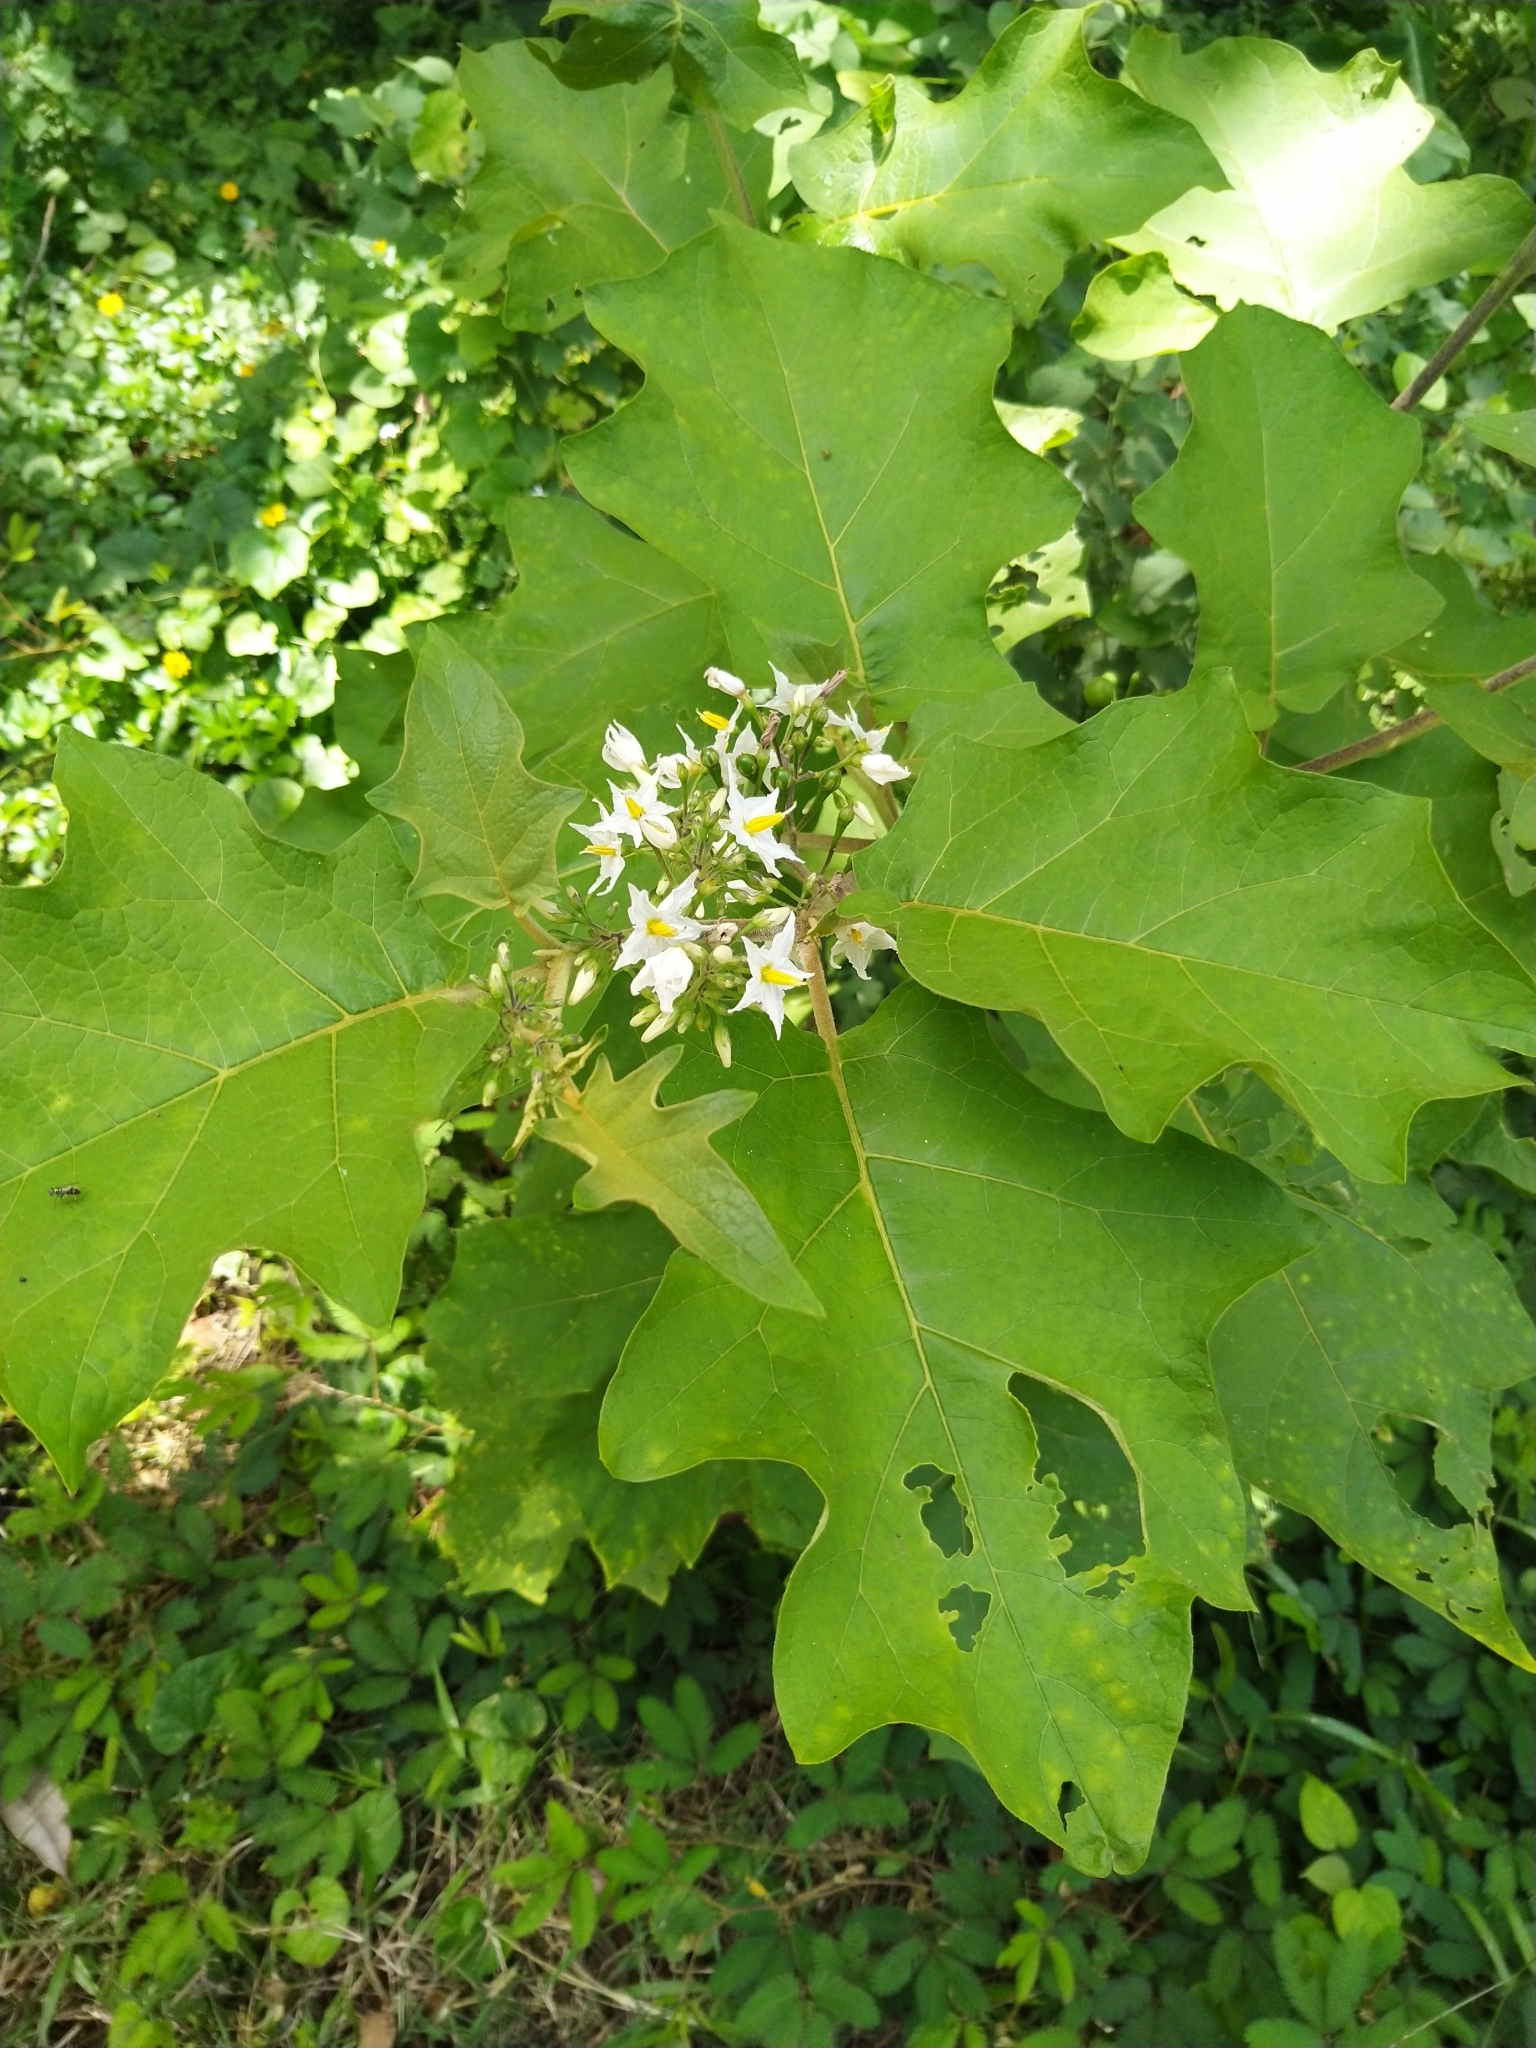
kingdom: Plantae
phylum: Tracheophyta
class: Magnoliopsida
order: Solanales
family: Solanaceae
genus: Solanum
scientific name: Solanum torvum
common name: Turkey berry
